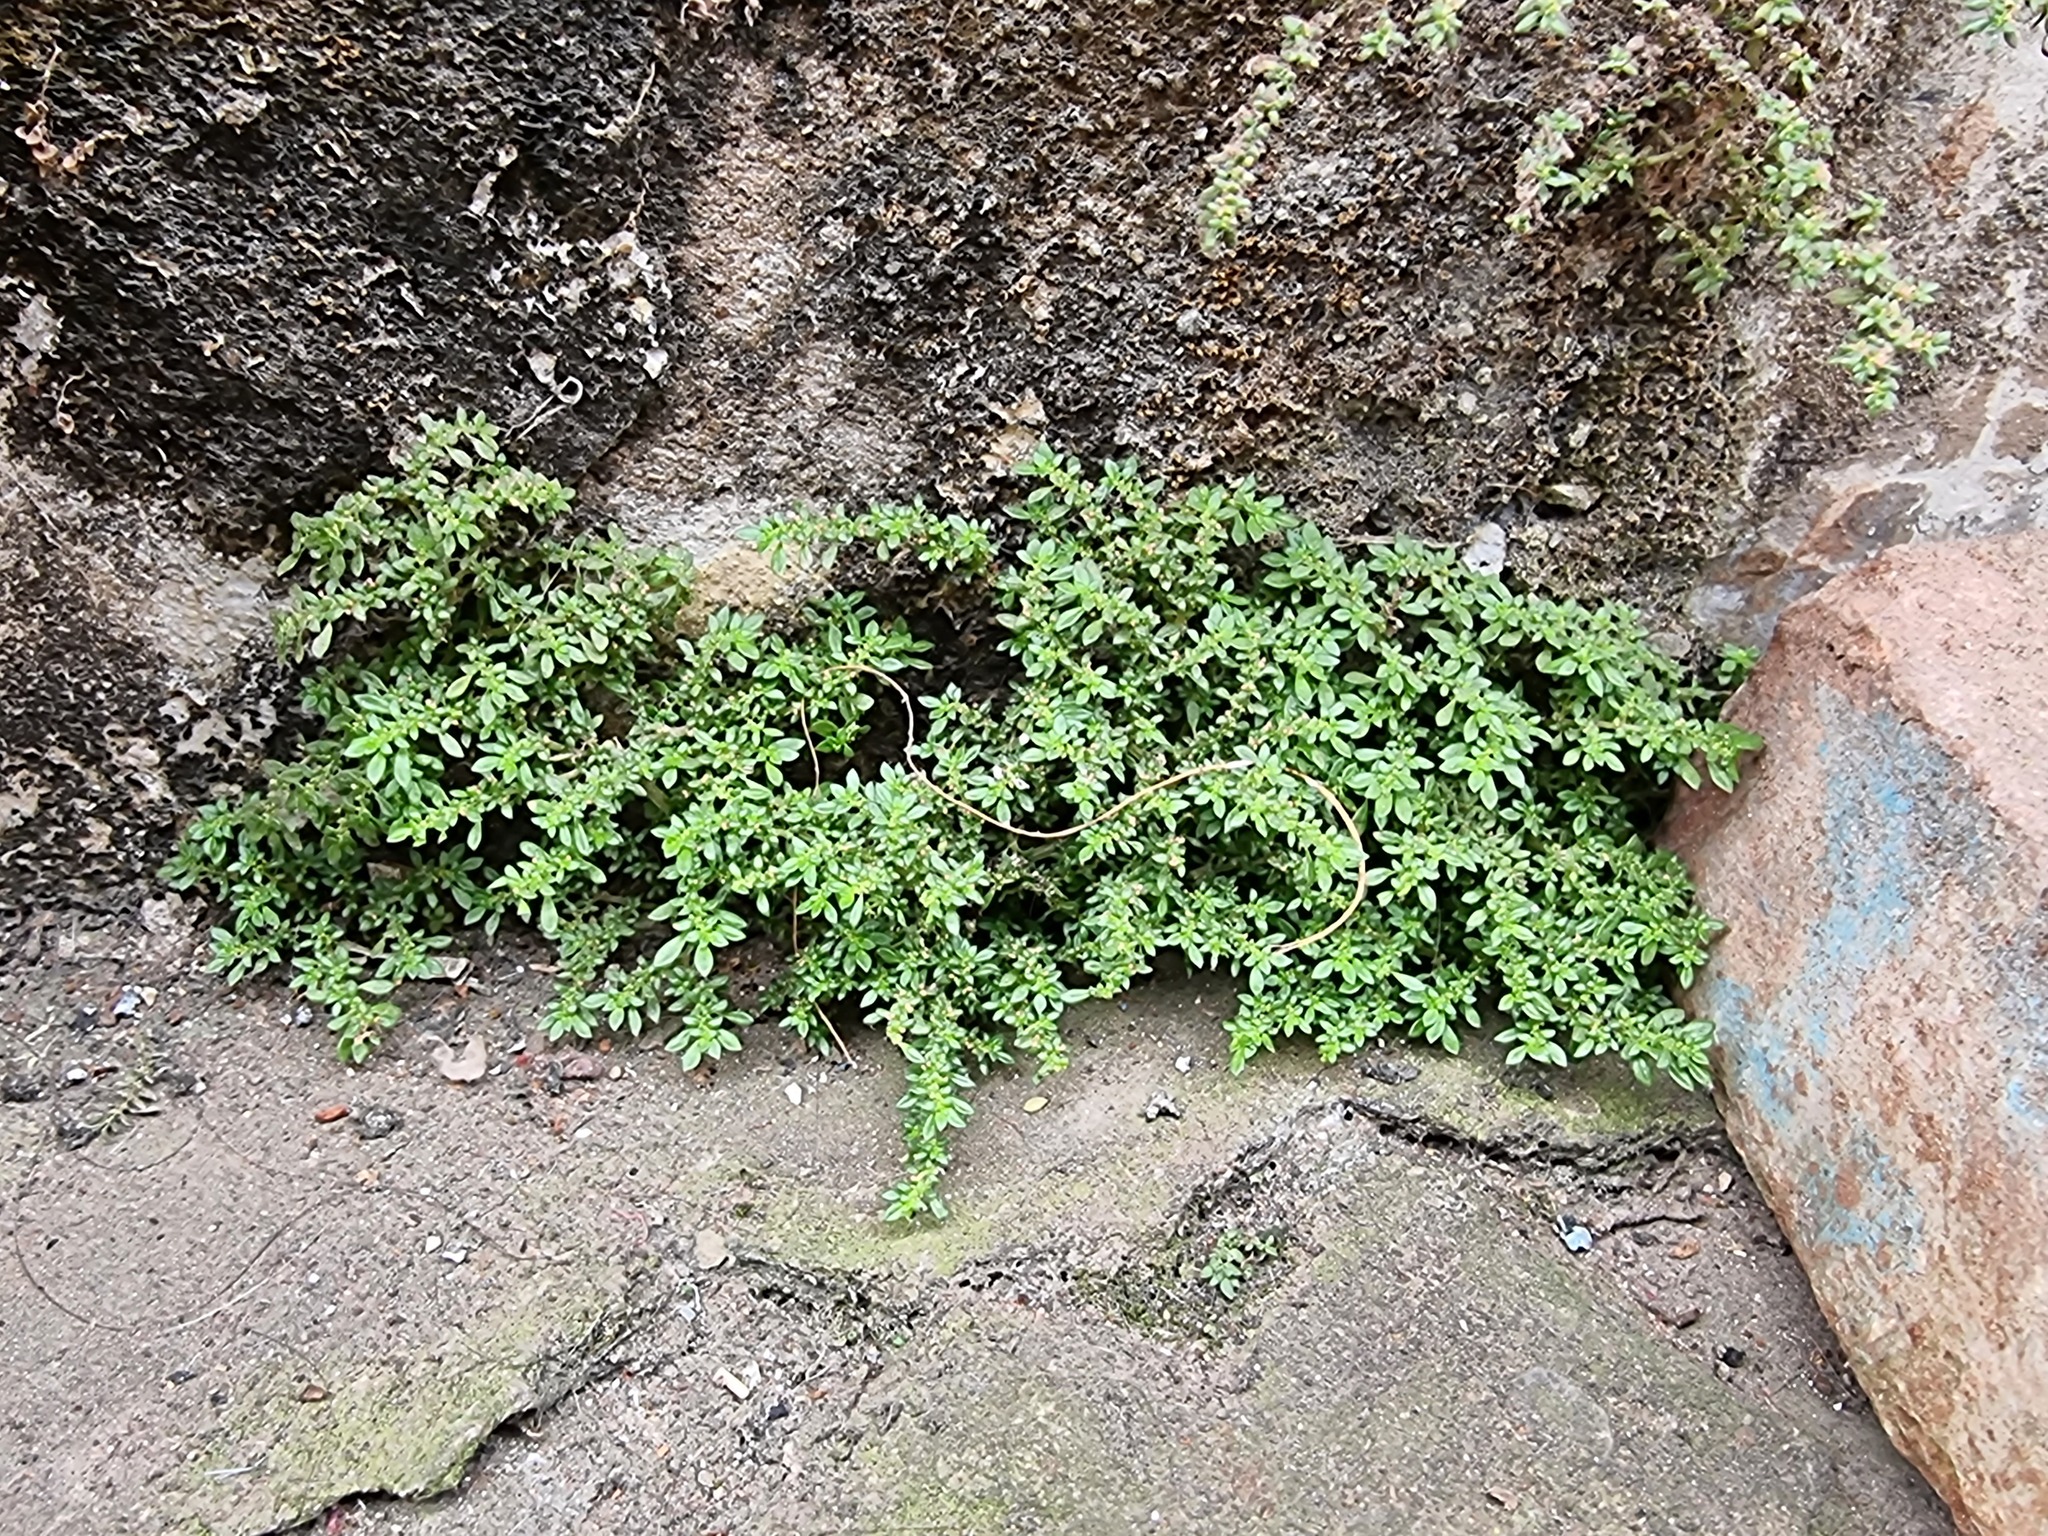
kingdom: Plantae
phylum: Tracheophyta
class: Magnoliopsida
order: Rosales
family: Urticaceae
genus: Pilea
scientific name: Pilea microphylla
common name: Artillery-plant
